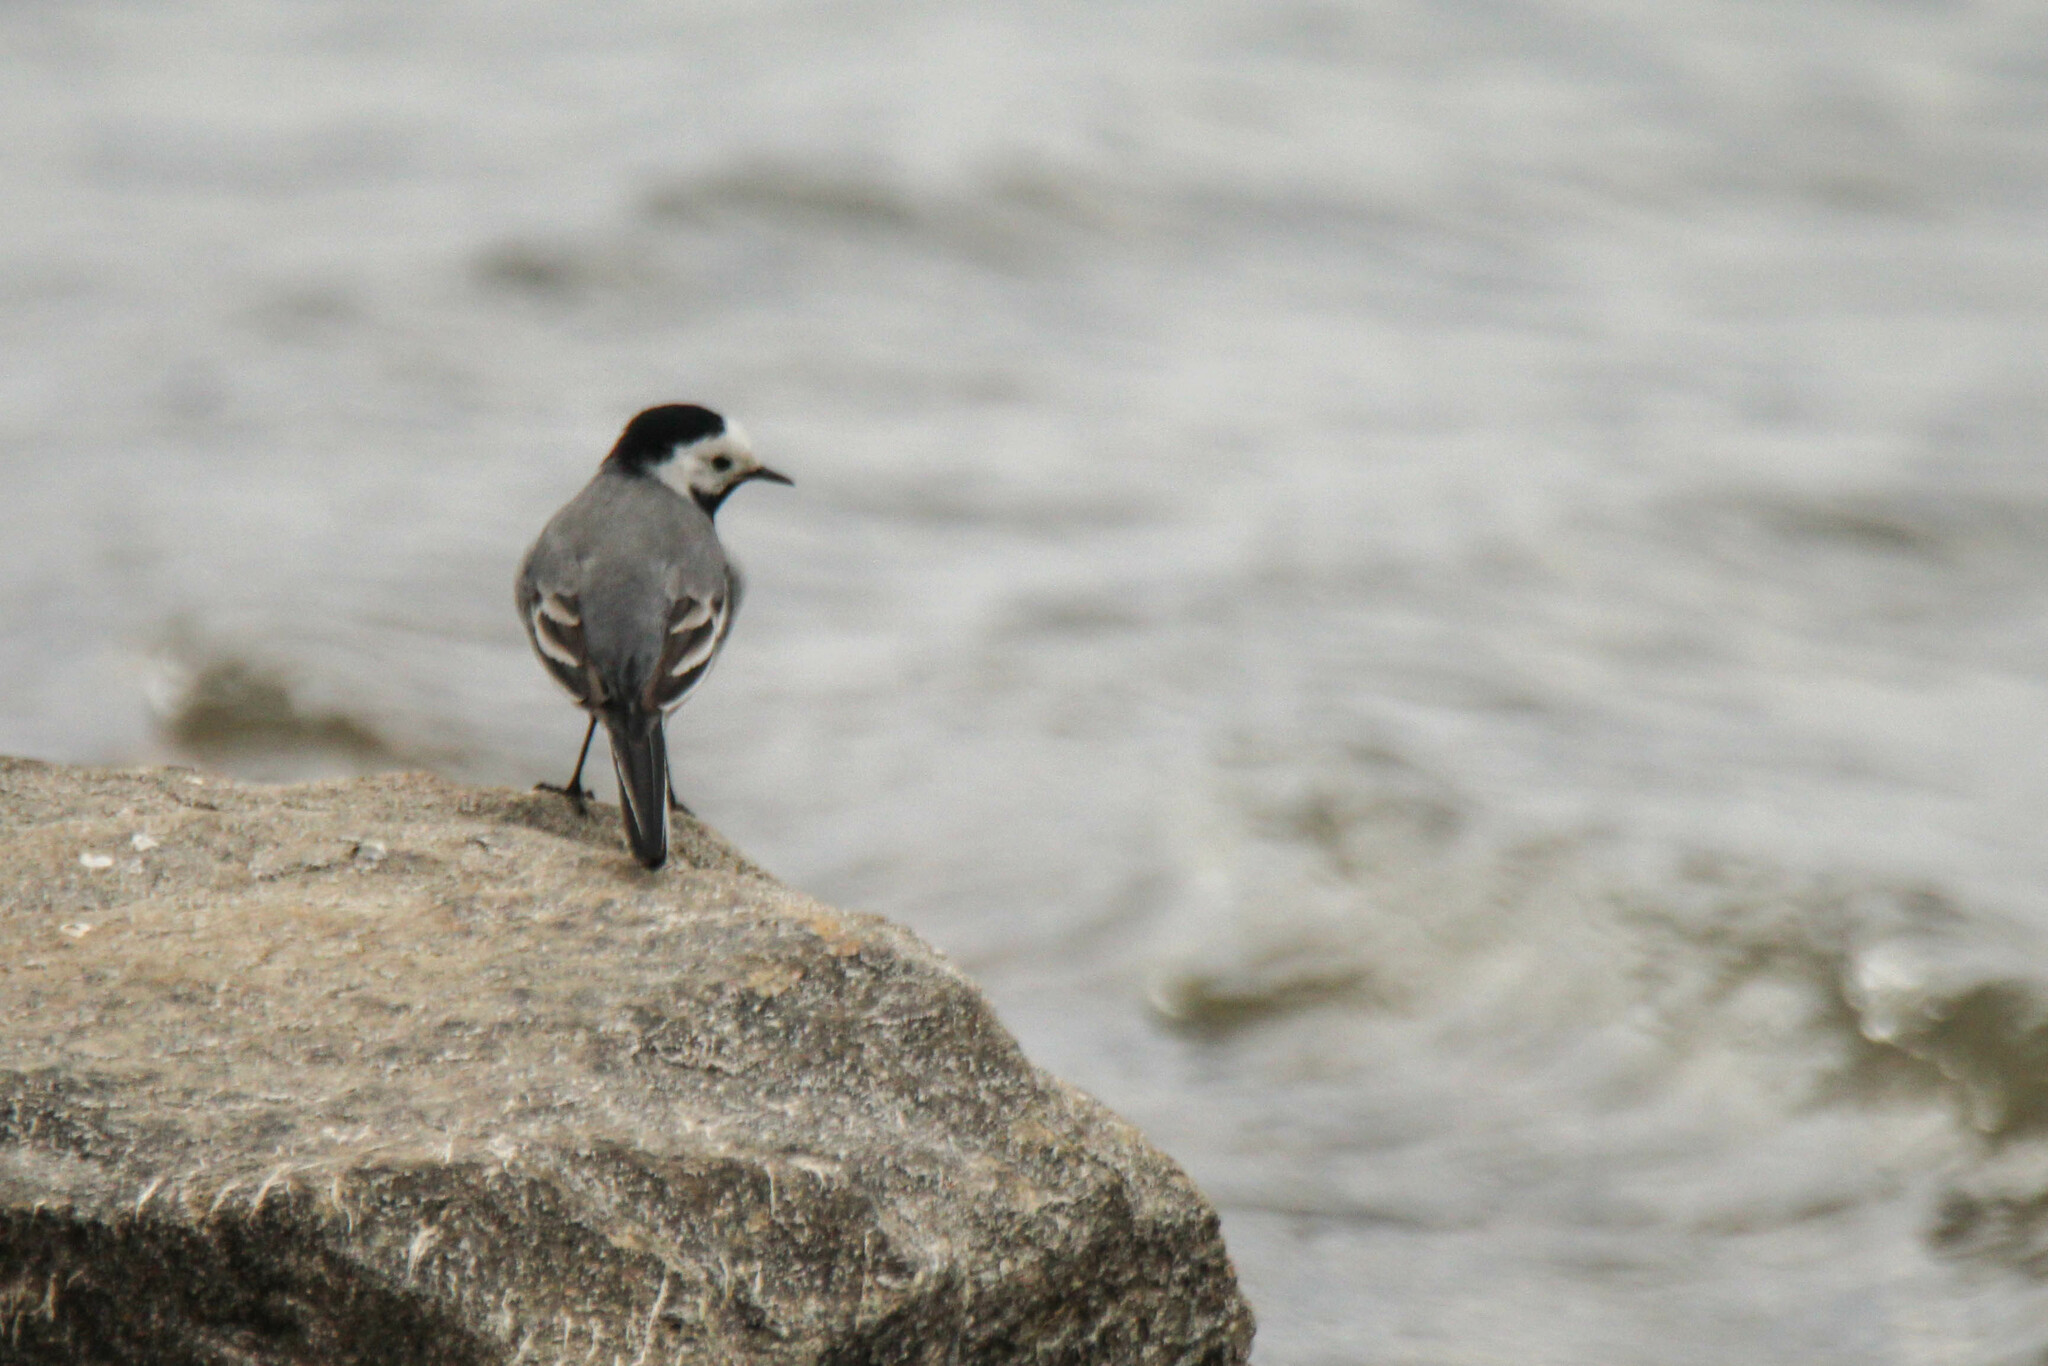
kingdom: Animalia
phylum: Chordata
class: Aves
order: Passeriformes
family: Motacillidae
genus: Motacilla
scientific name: Motacilla alba
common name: White wagtail
